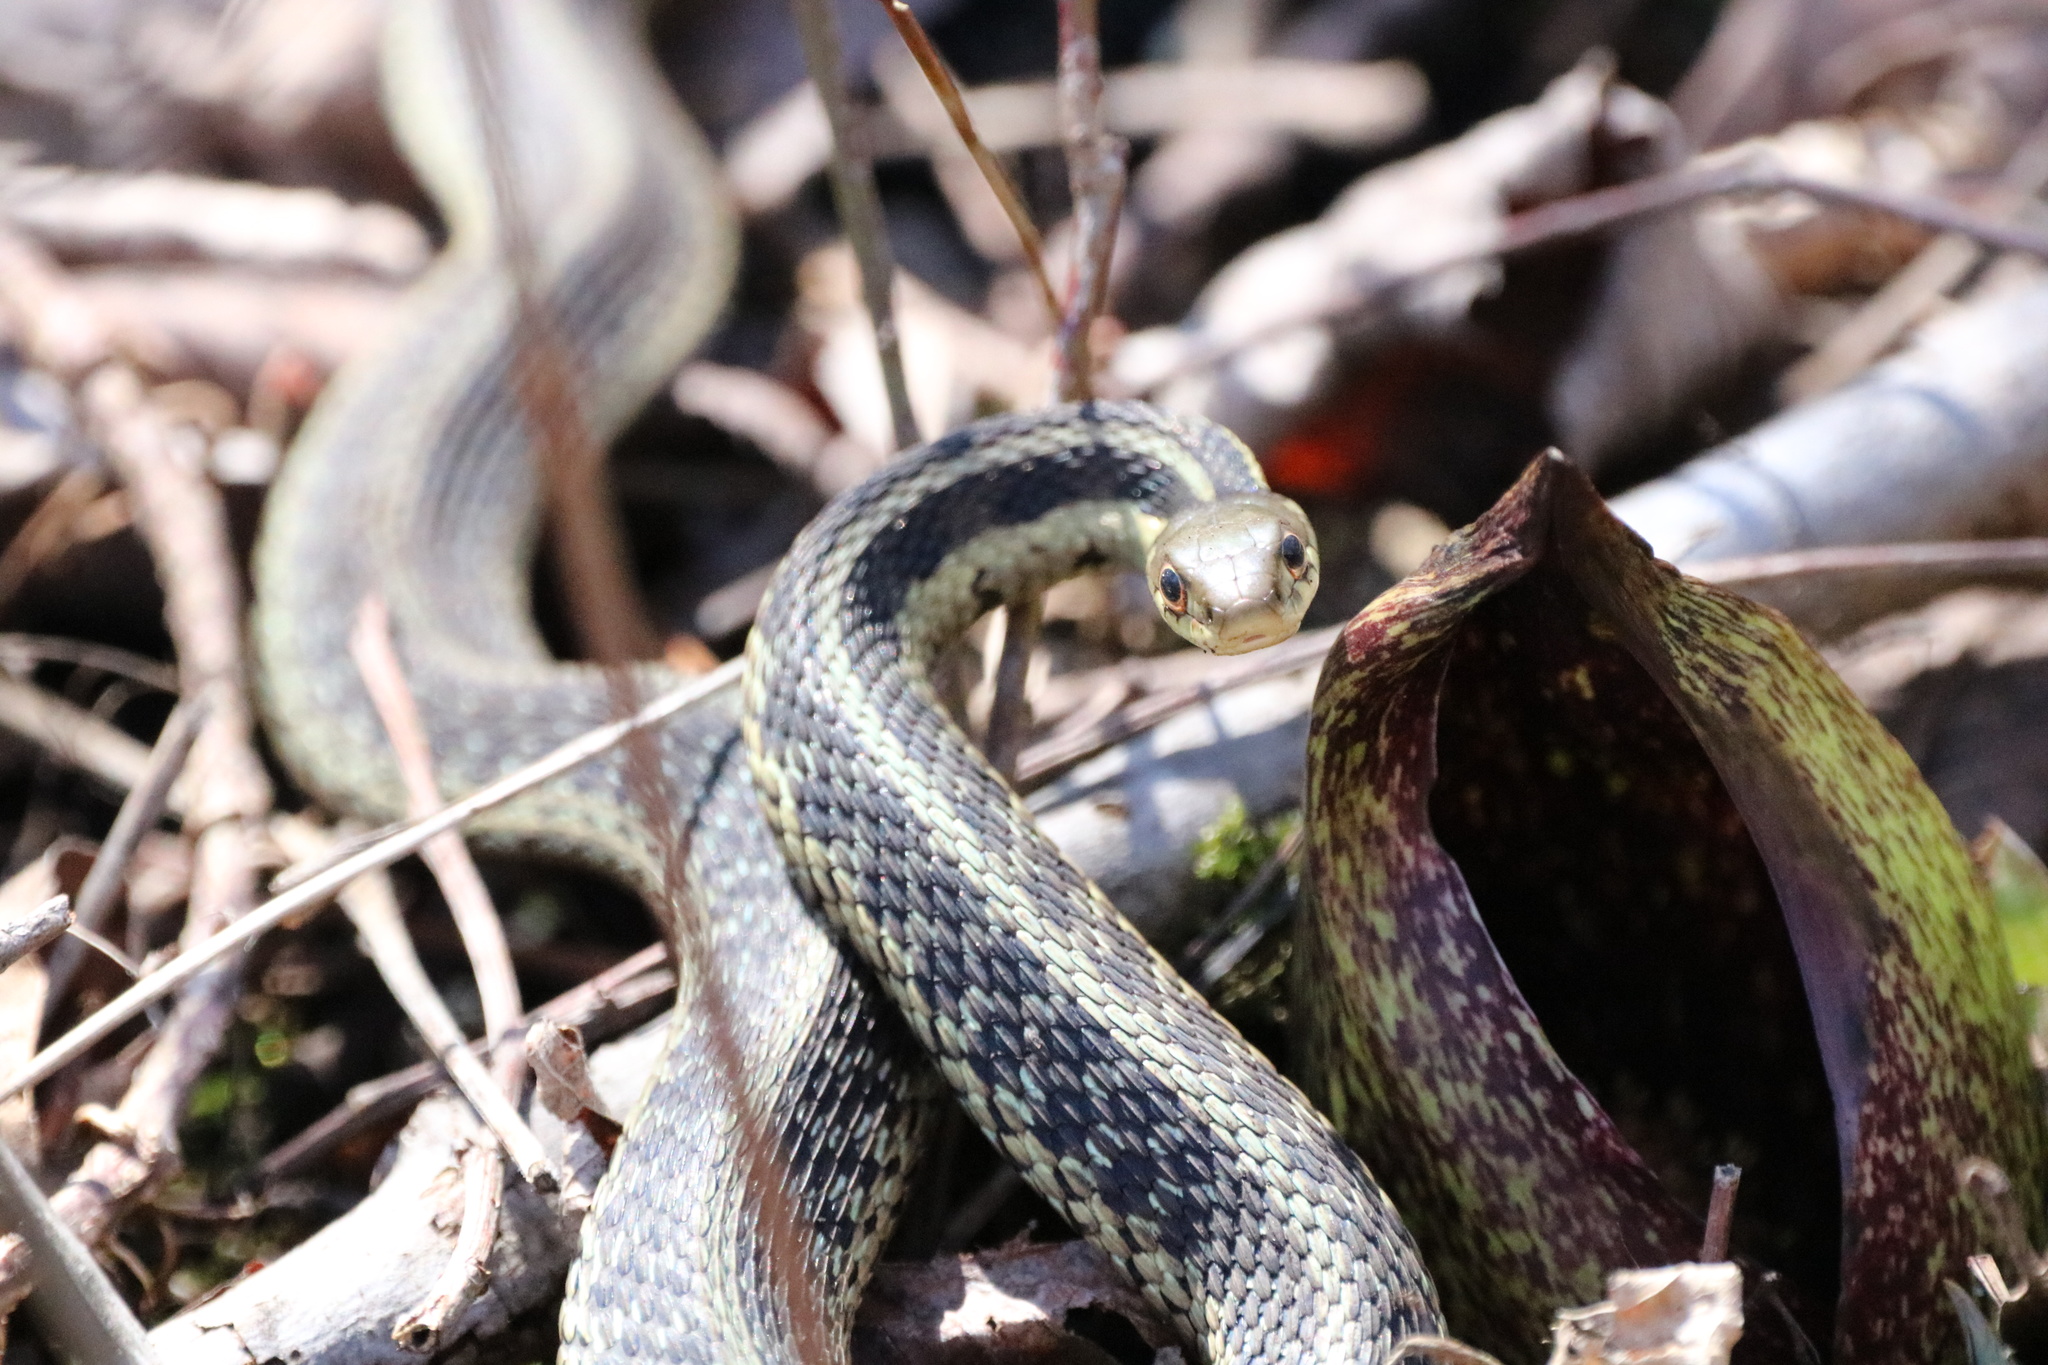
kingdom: Animalia
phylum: Chordata
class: Squamata
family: Colubridae
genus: Thamnophis
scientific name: Thamnophis sirtalis
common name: Common garter snake
